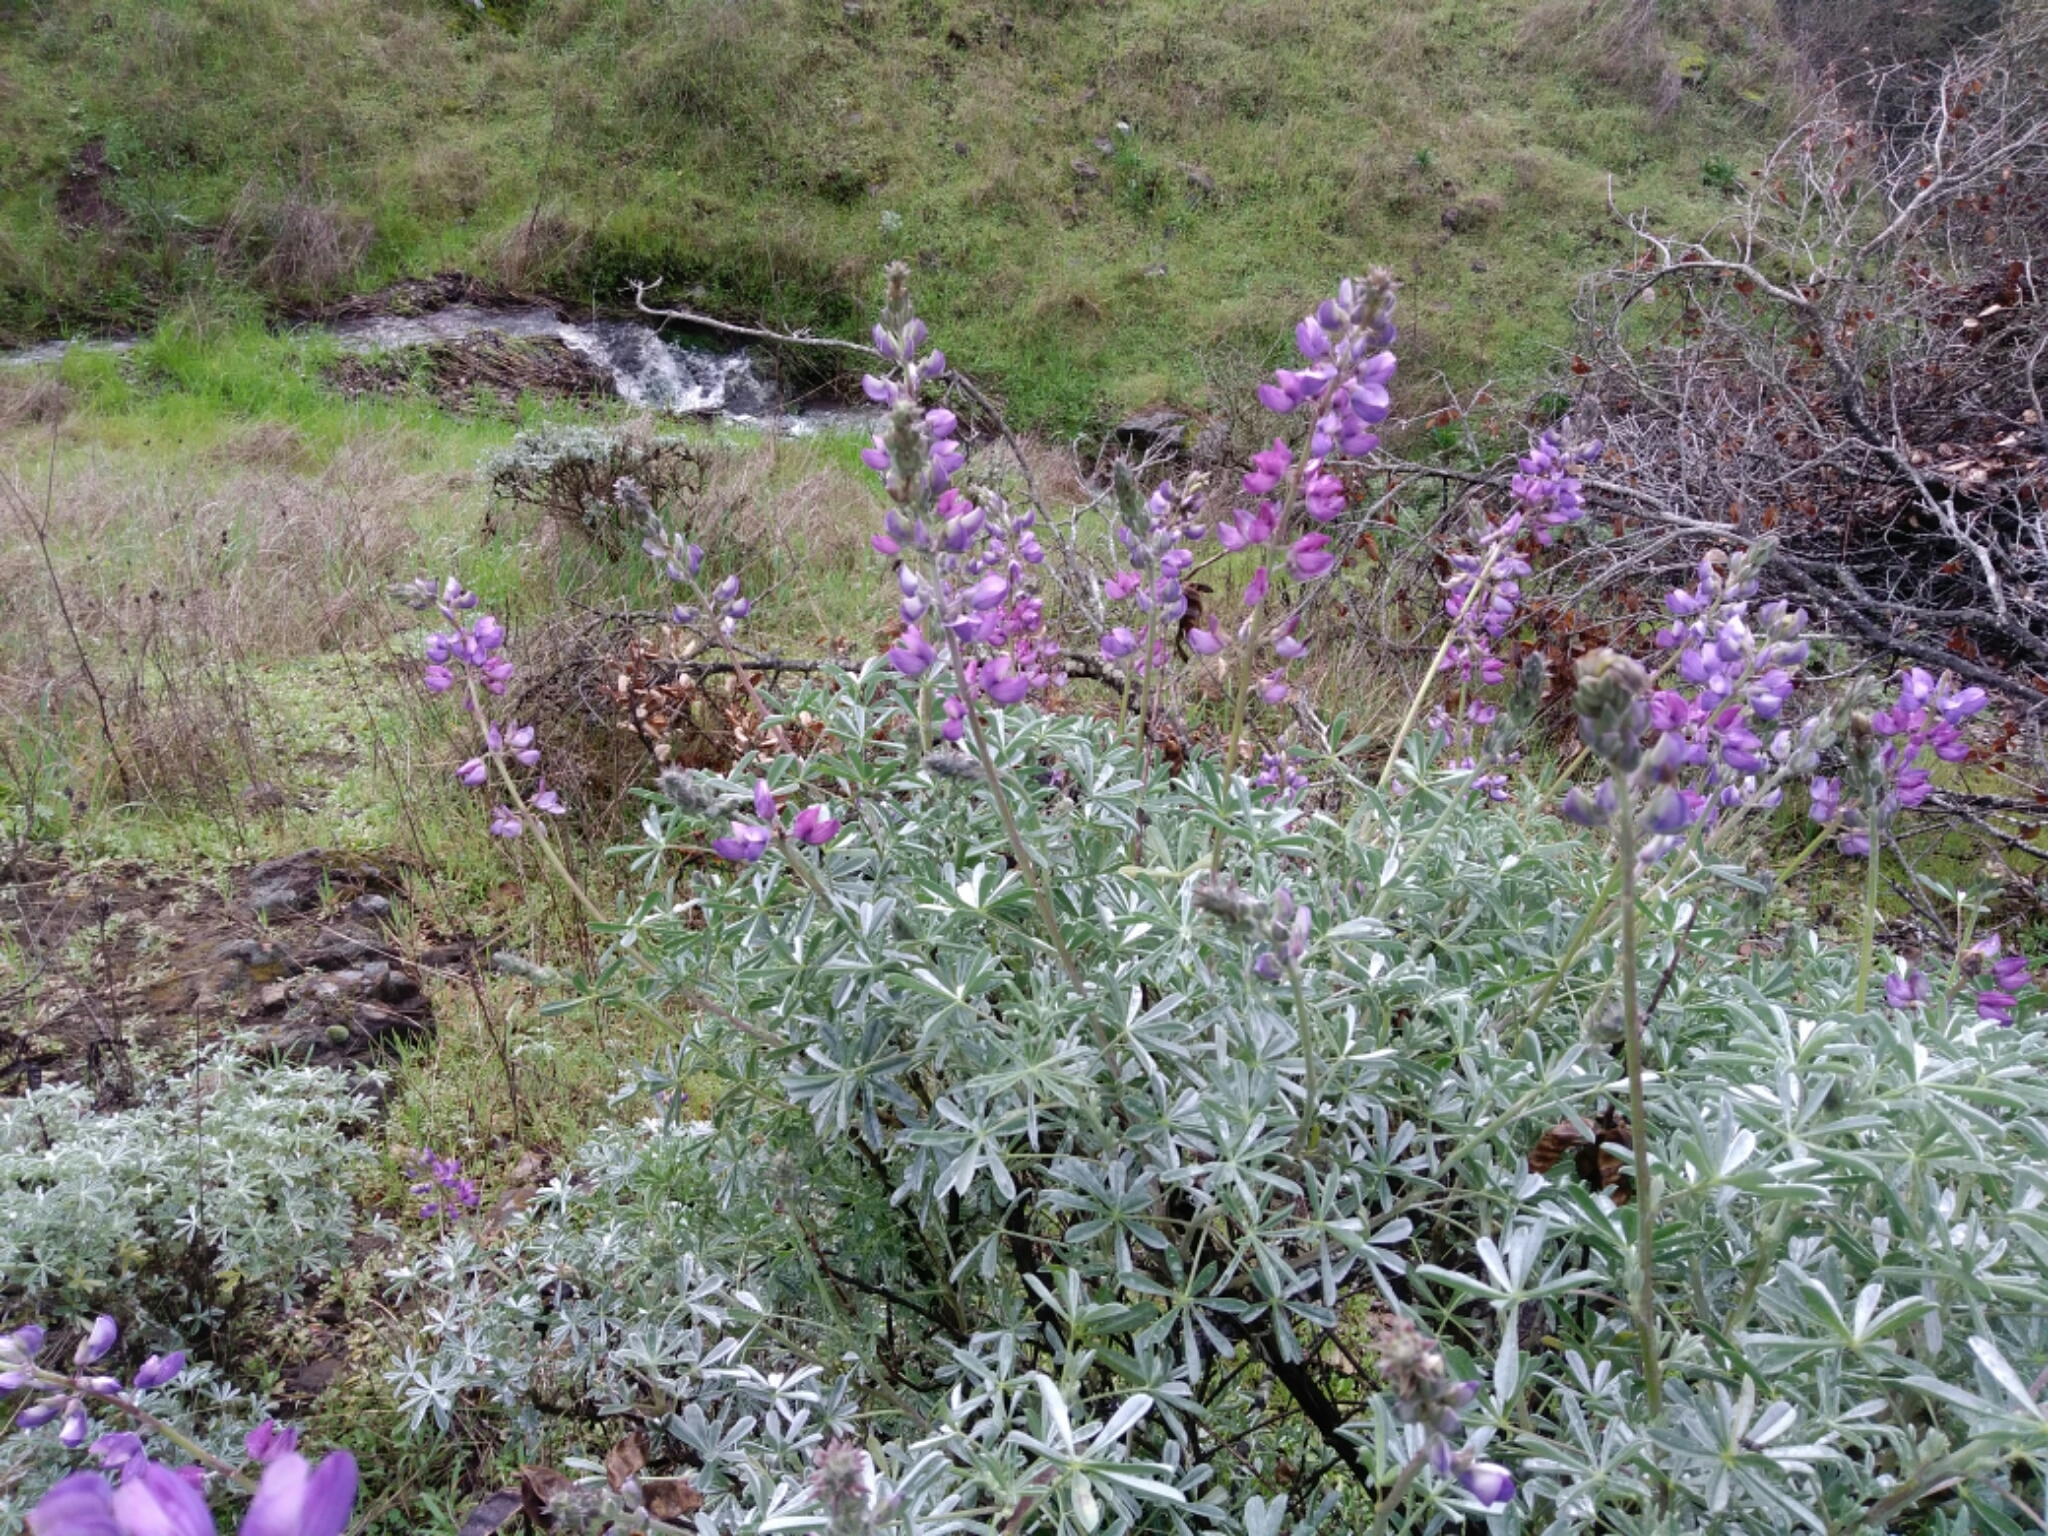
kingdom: Plantae
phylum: Tracheophyta
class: Magnoliopsida
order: Fabales
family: Fabaceae
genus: Lupinus
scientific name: Lupinus albifrons
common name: Foothill lupine
